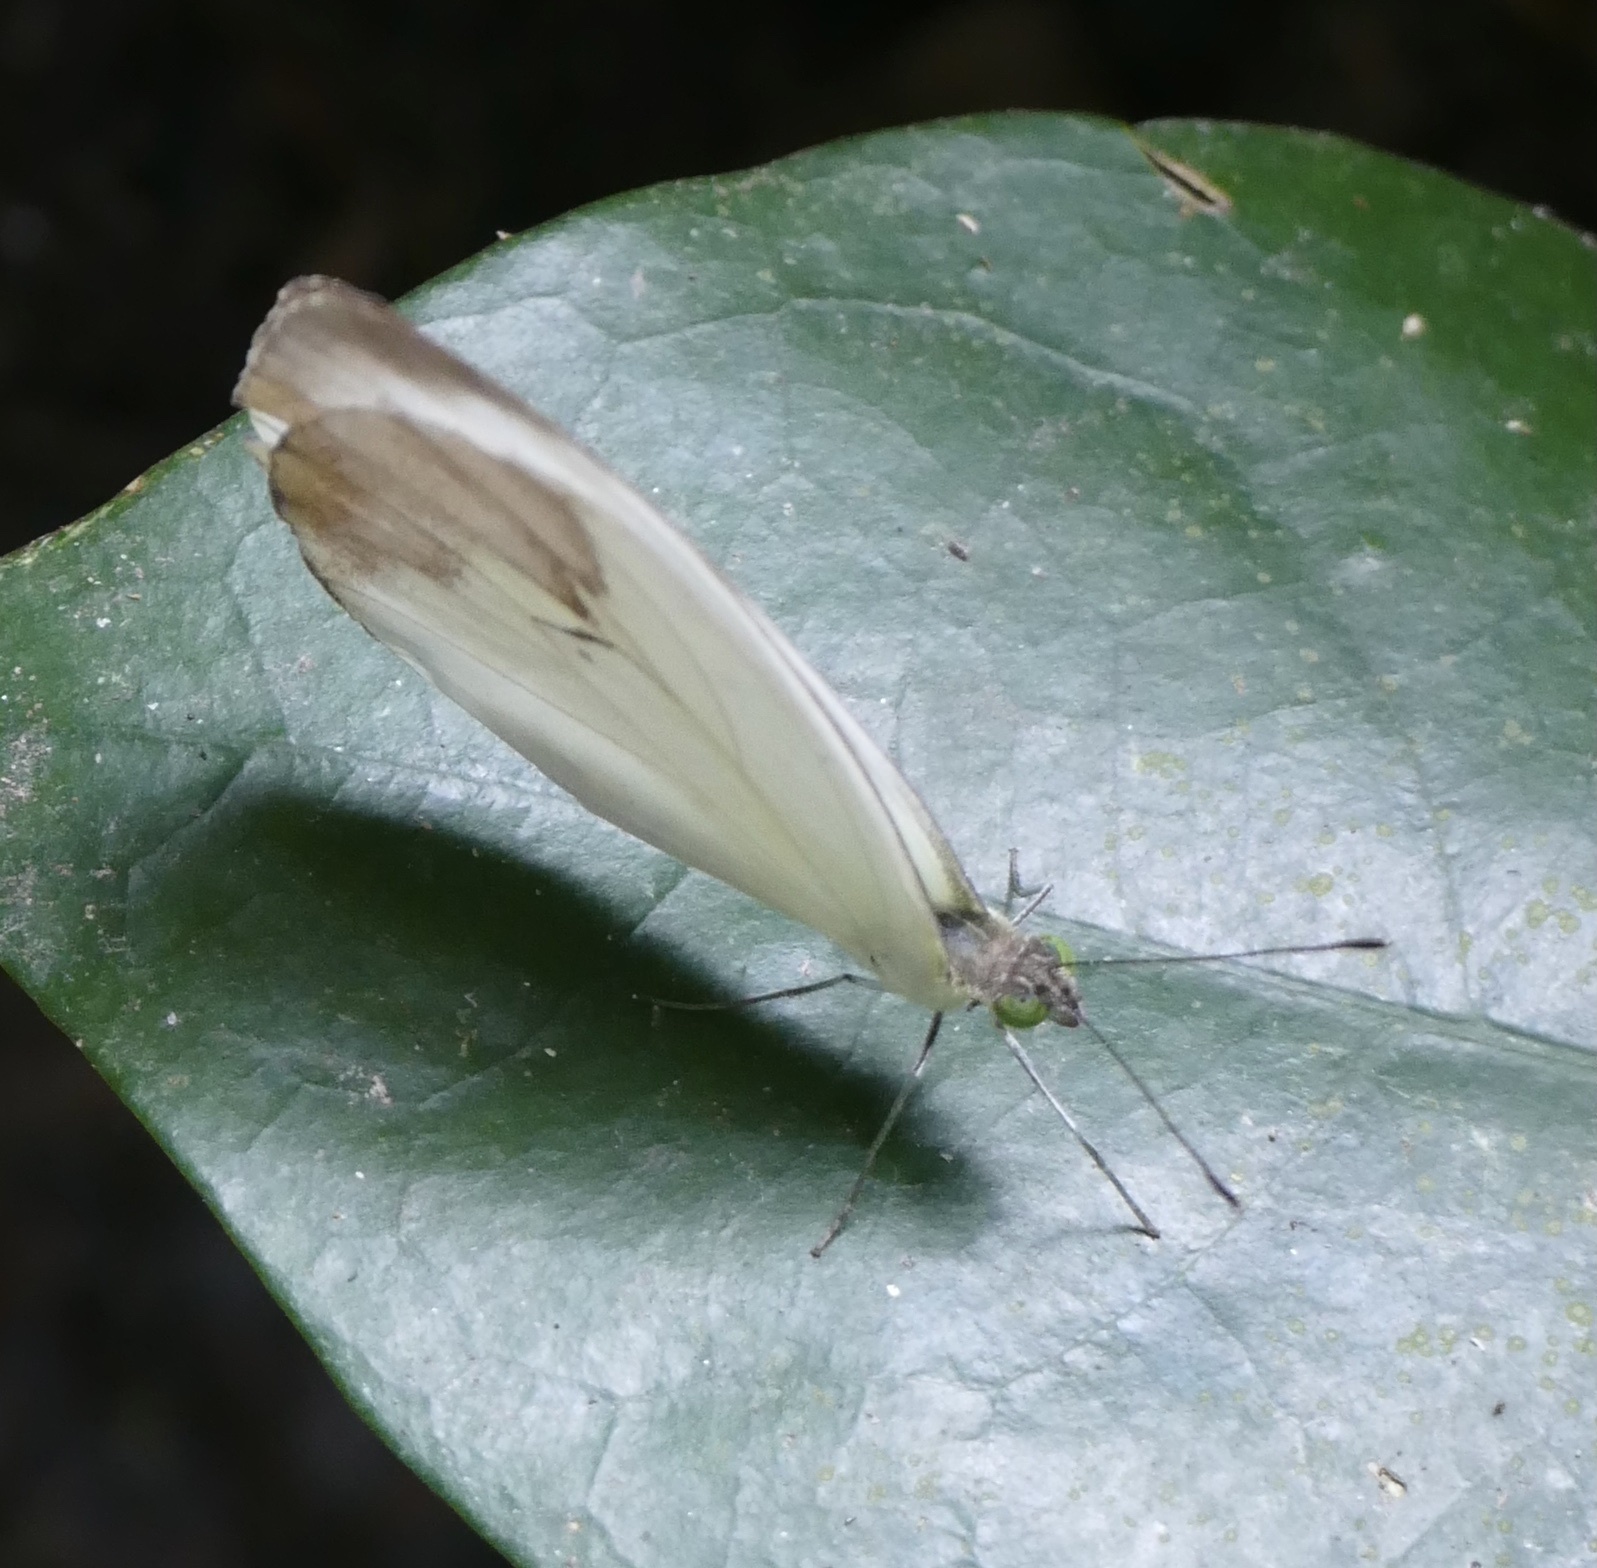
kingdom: Animalia
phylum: Arthropoda
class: Insecta
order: Lepidoptera
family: Pieridae
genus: Nepheronia
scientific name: Nepheronia pharis
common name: Round-winged vagrant
